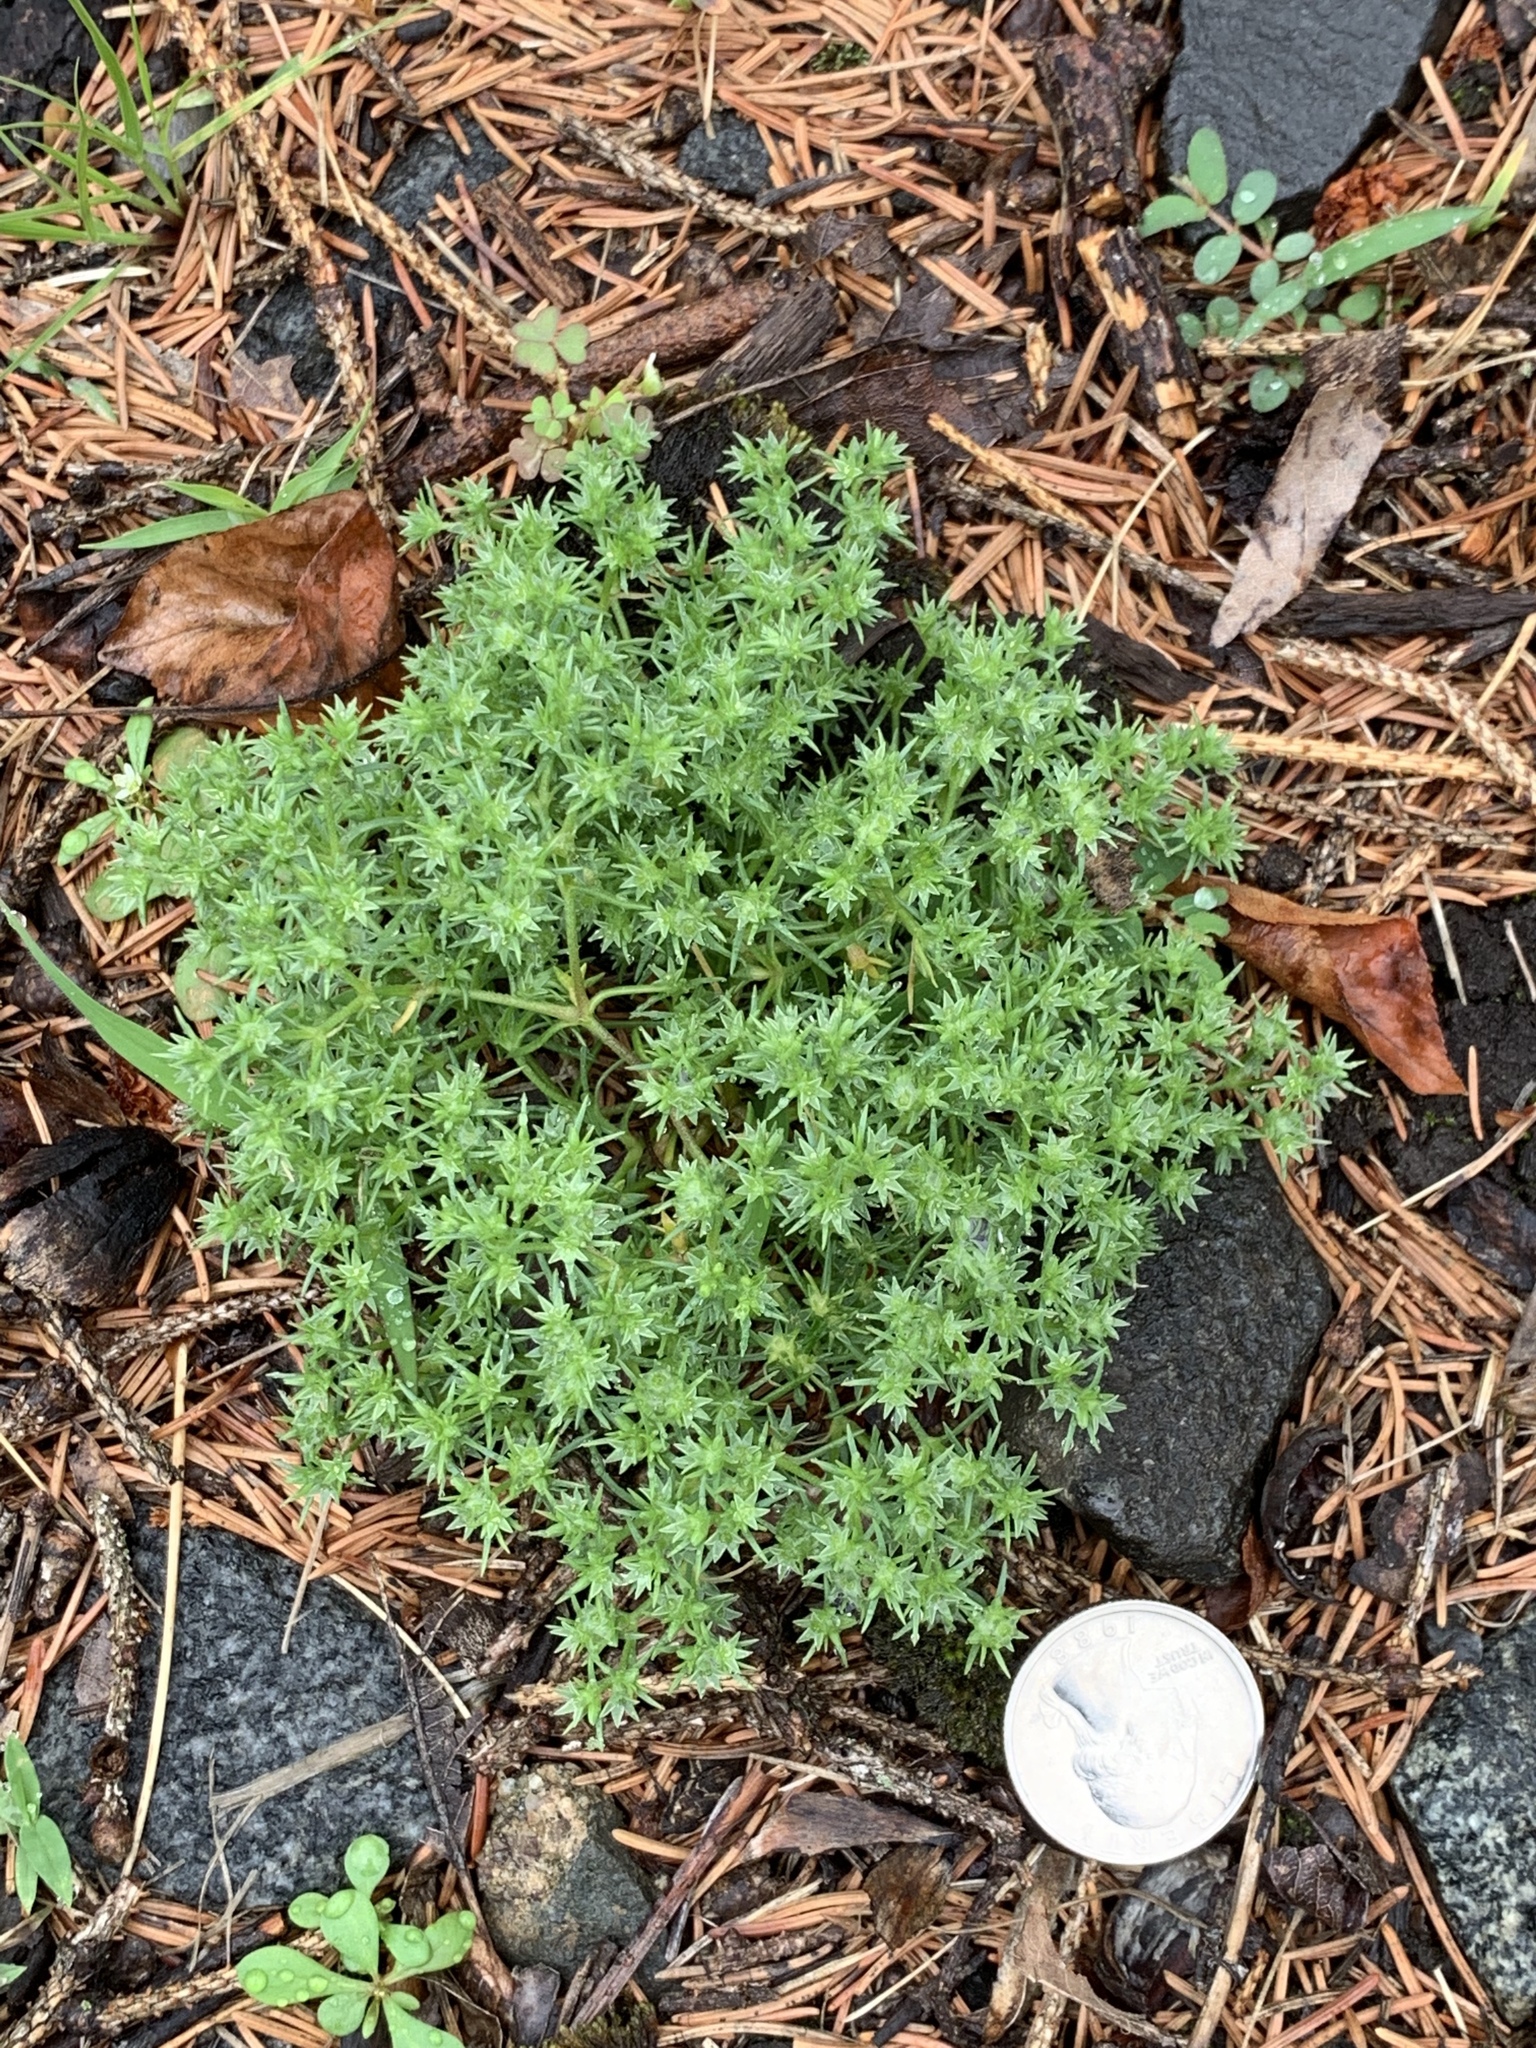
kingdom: Plantae
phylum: Tracheophyta
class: Magnoliopsida
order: Caryophyllales
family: Caryophyllaceae
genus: Scleranthus
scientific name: Scleranthus annuus
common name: Annual knawel
